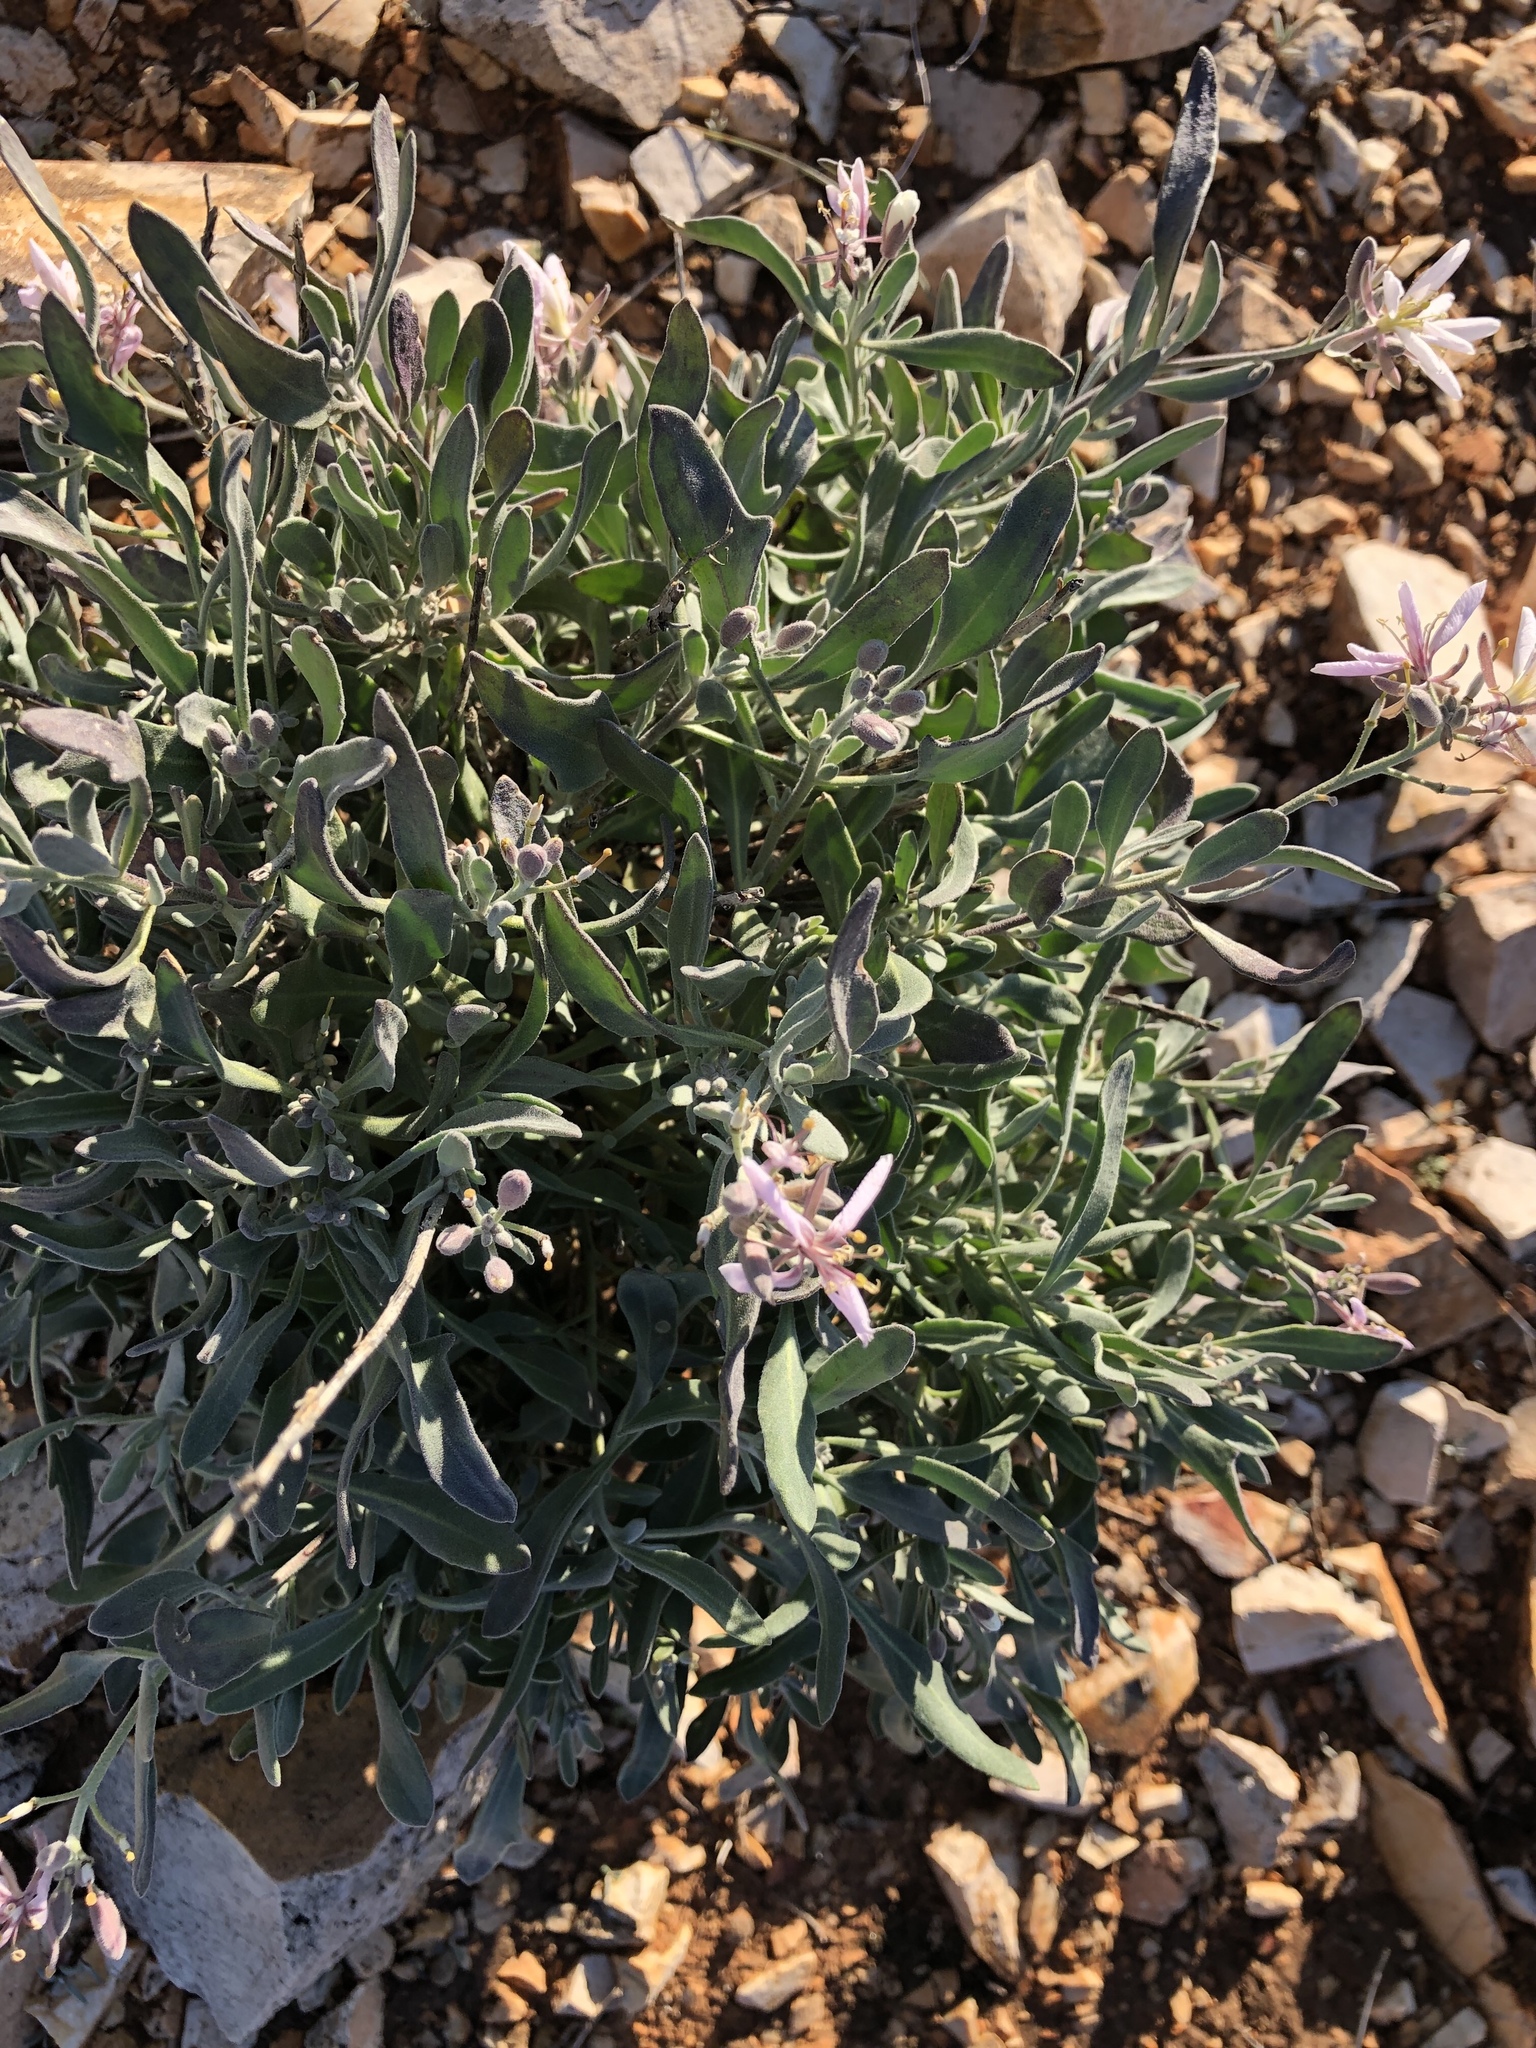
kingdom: Plantae
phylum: Tracheophyta
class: Magnoliopsida
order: Brassicales
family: Brassicaceae
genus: Nerisyrenia
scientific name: Nerisyrenia camporum
